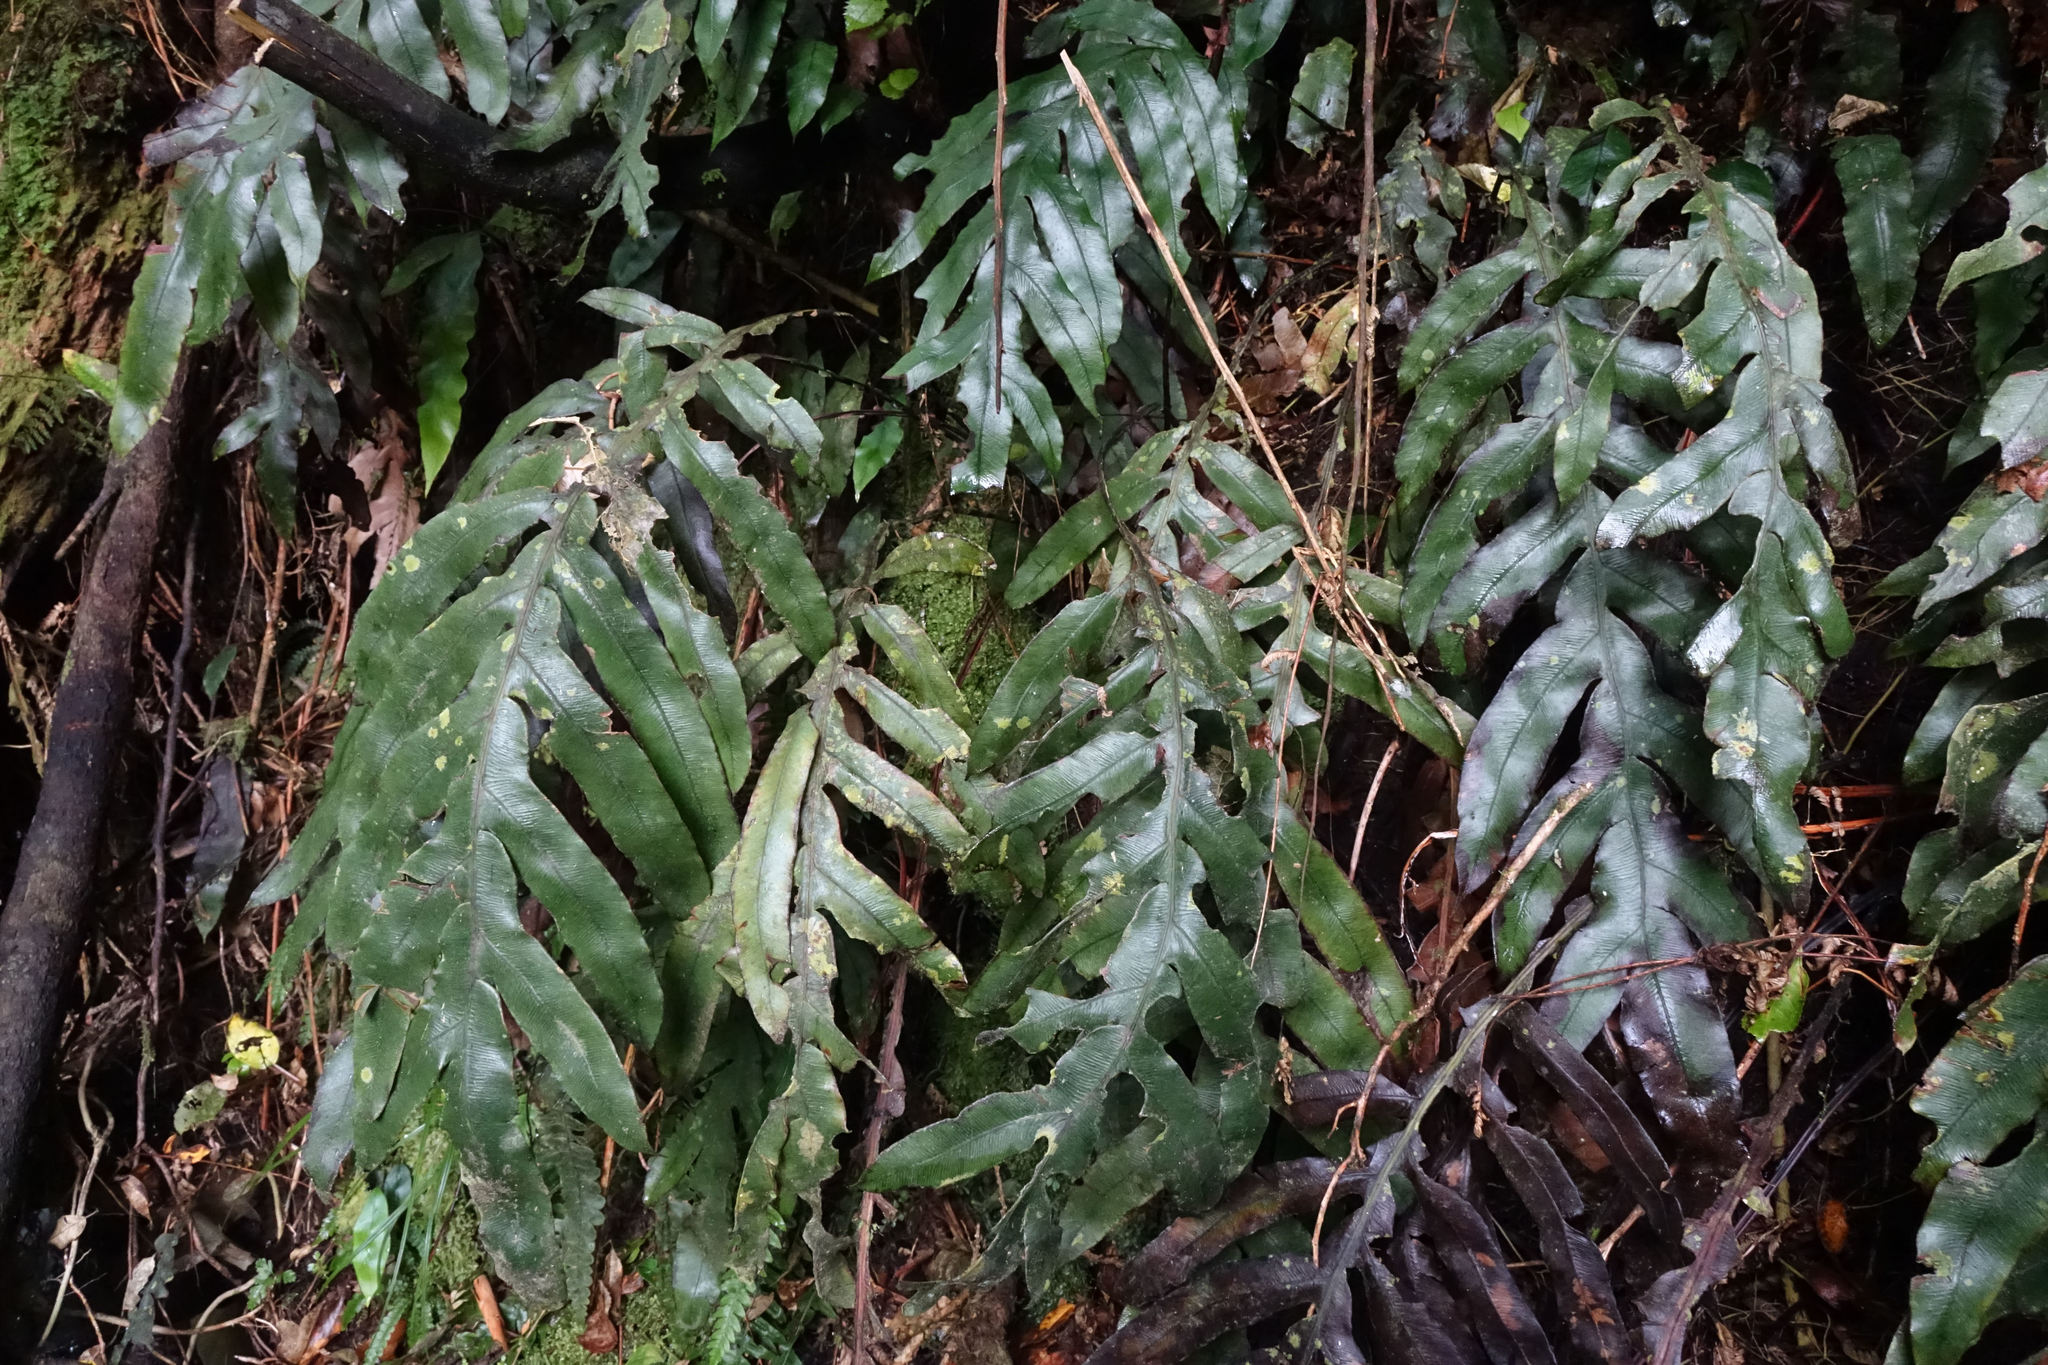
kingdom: Plantae
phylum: Tracheophyta
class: Polypodiopsida
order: Polypodiales
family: Blechnaceae
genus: Austroblechnum
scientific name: Austroblechnum colensoi
